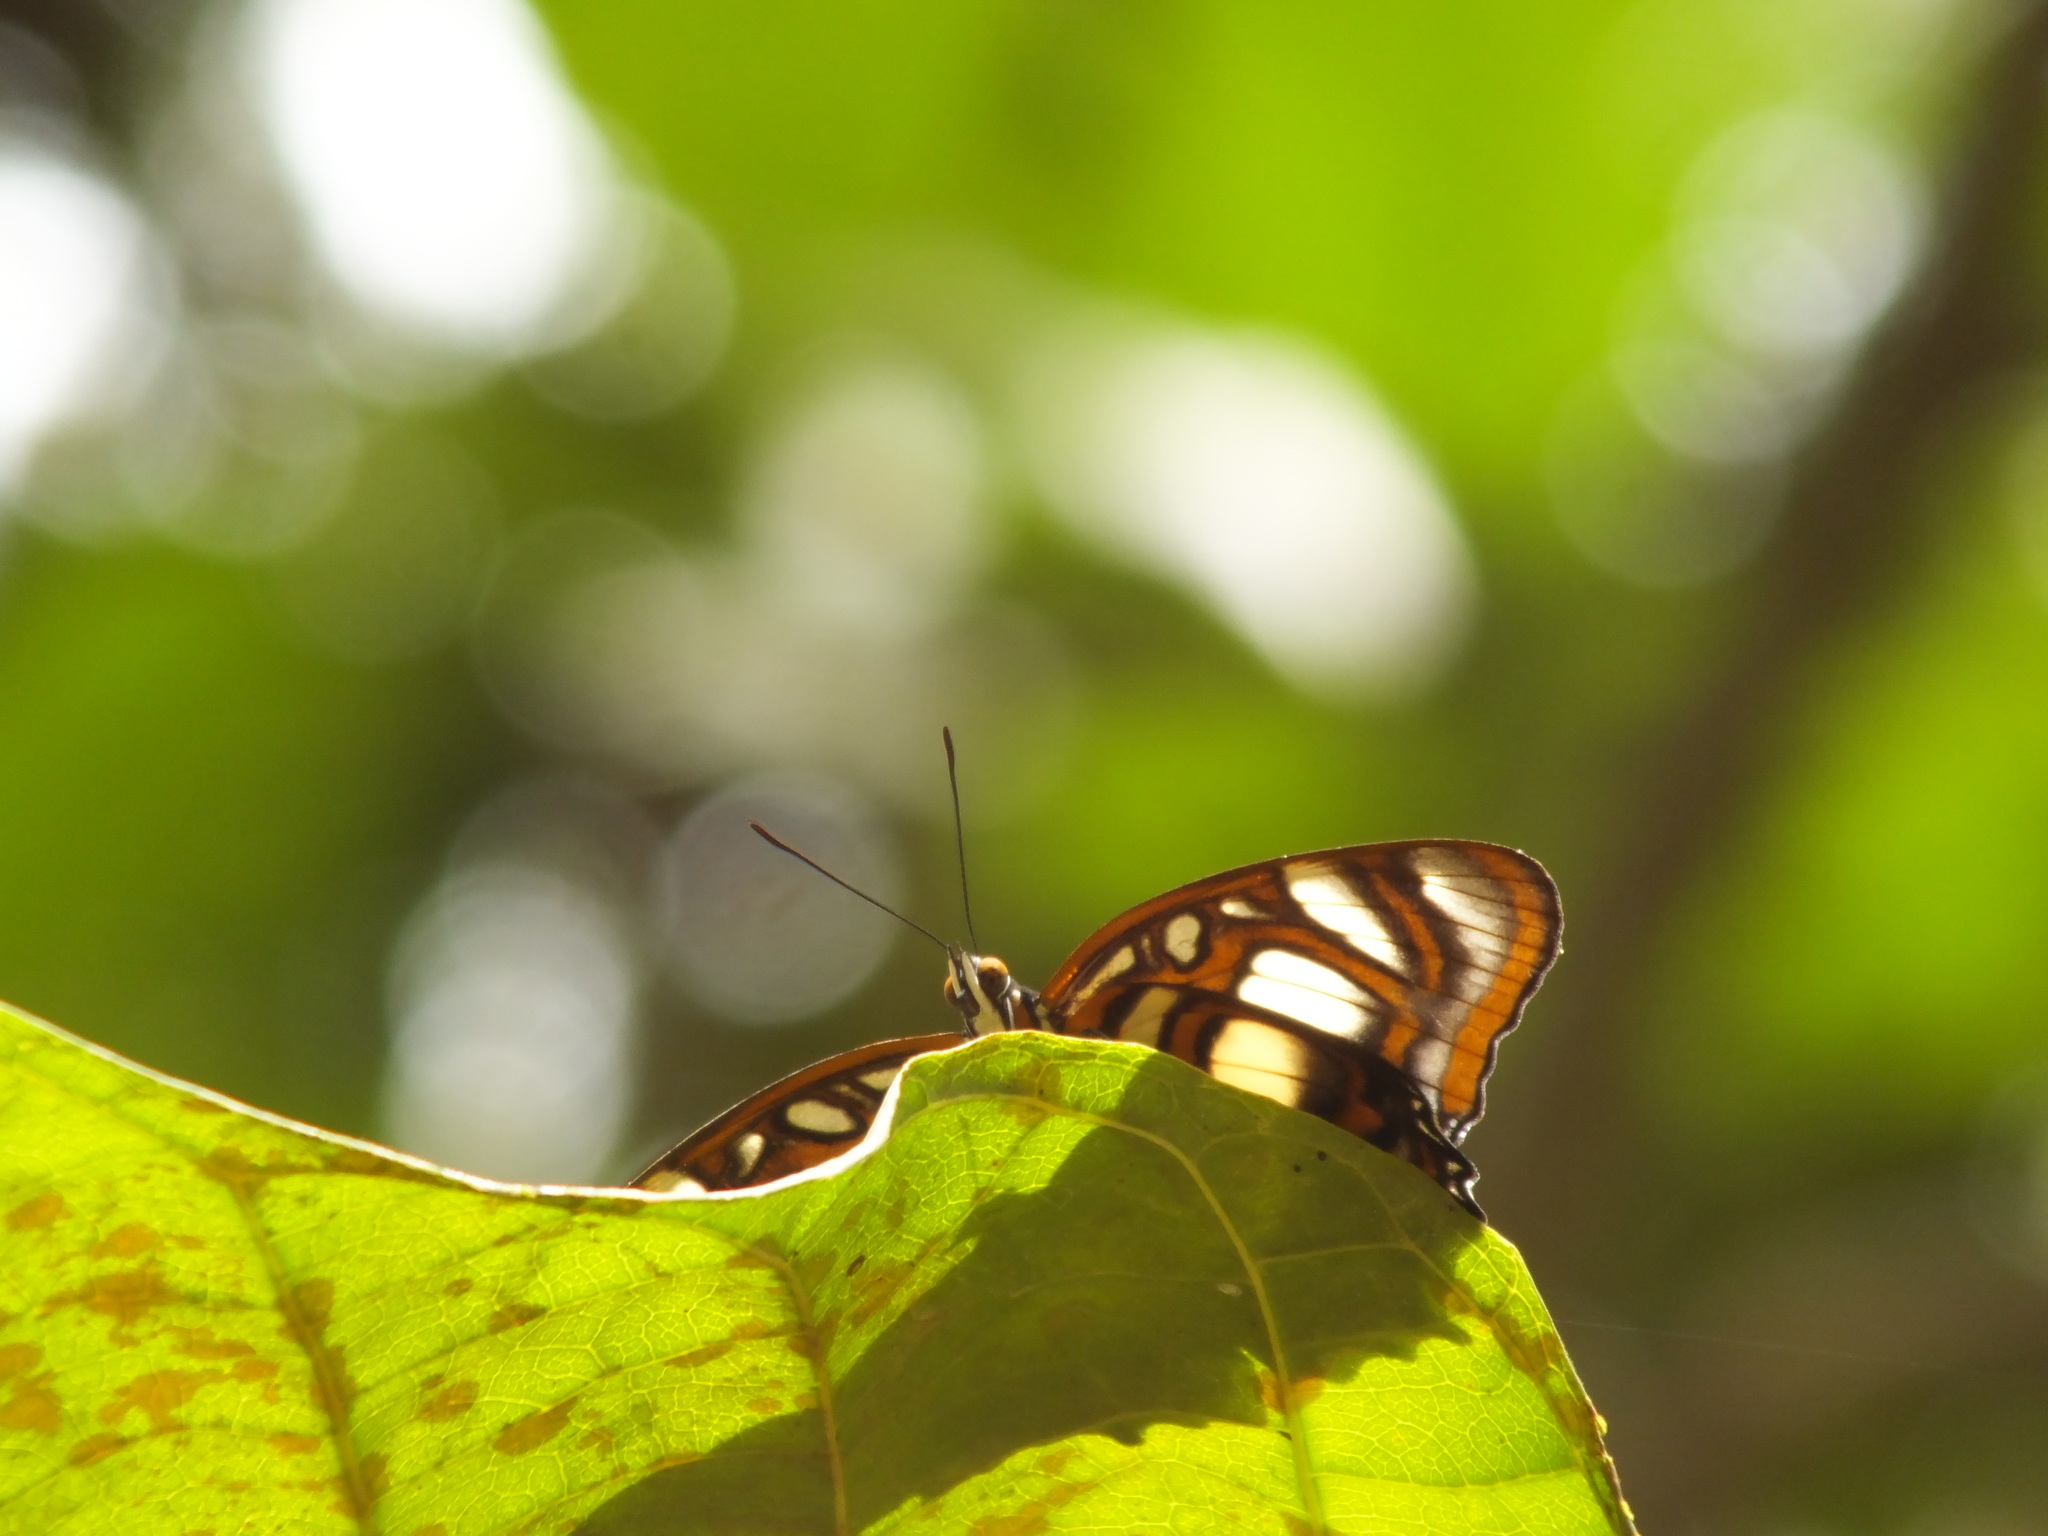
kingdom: Animalia
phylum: Arthropoda
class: Insecta
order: Lepidoptera
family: Nymphalidae
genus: Metamorpha
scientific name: Metamorpha elissa
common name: Elissa page
